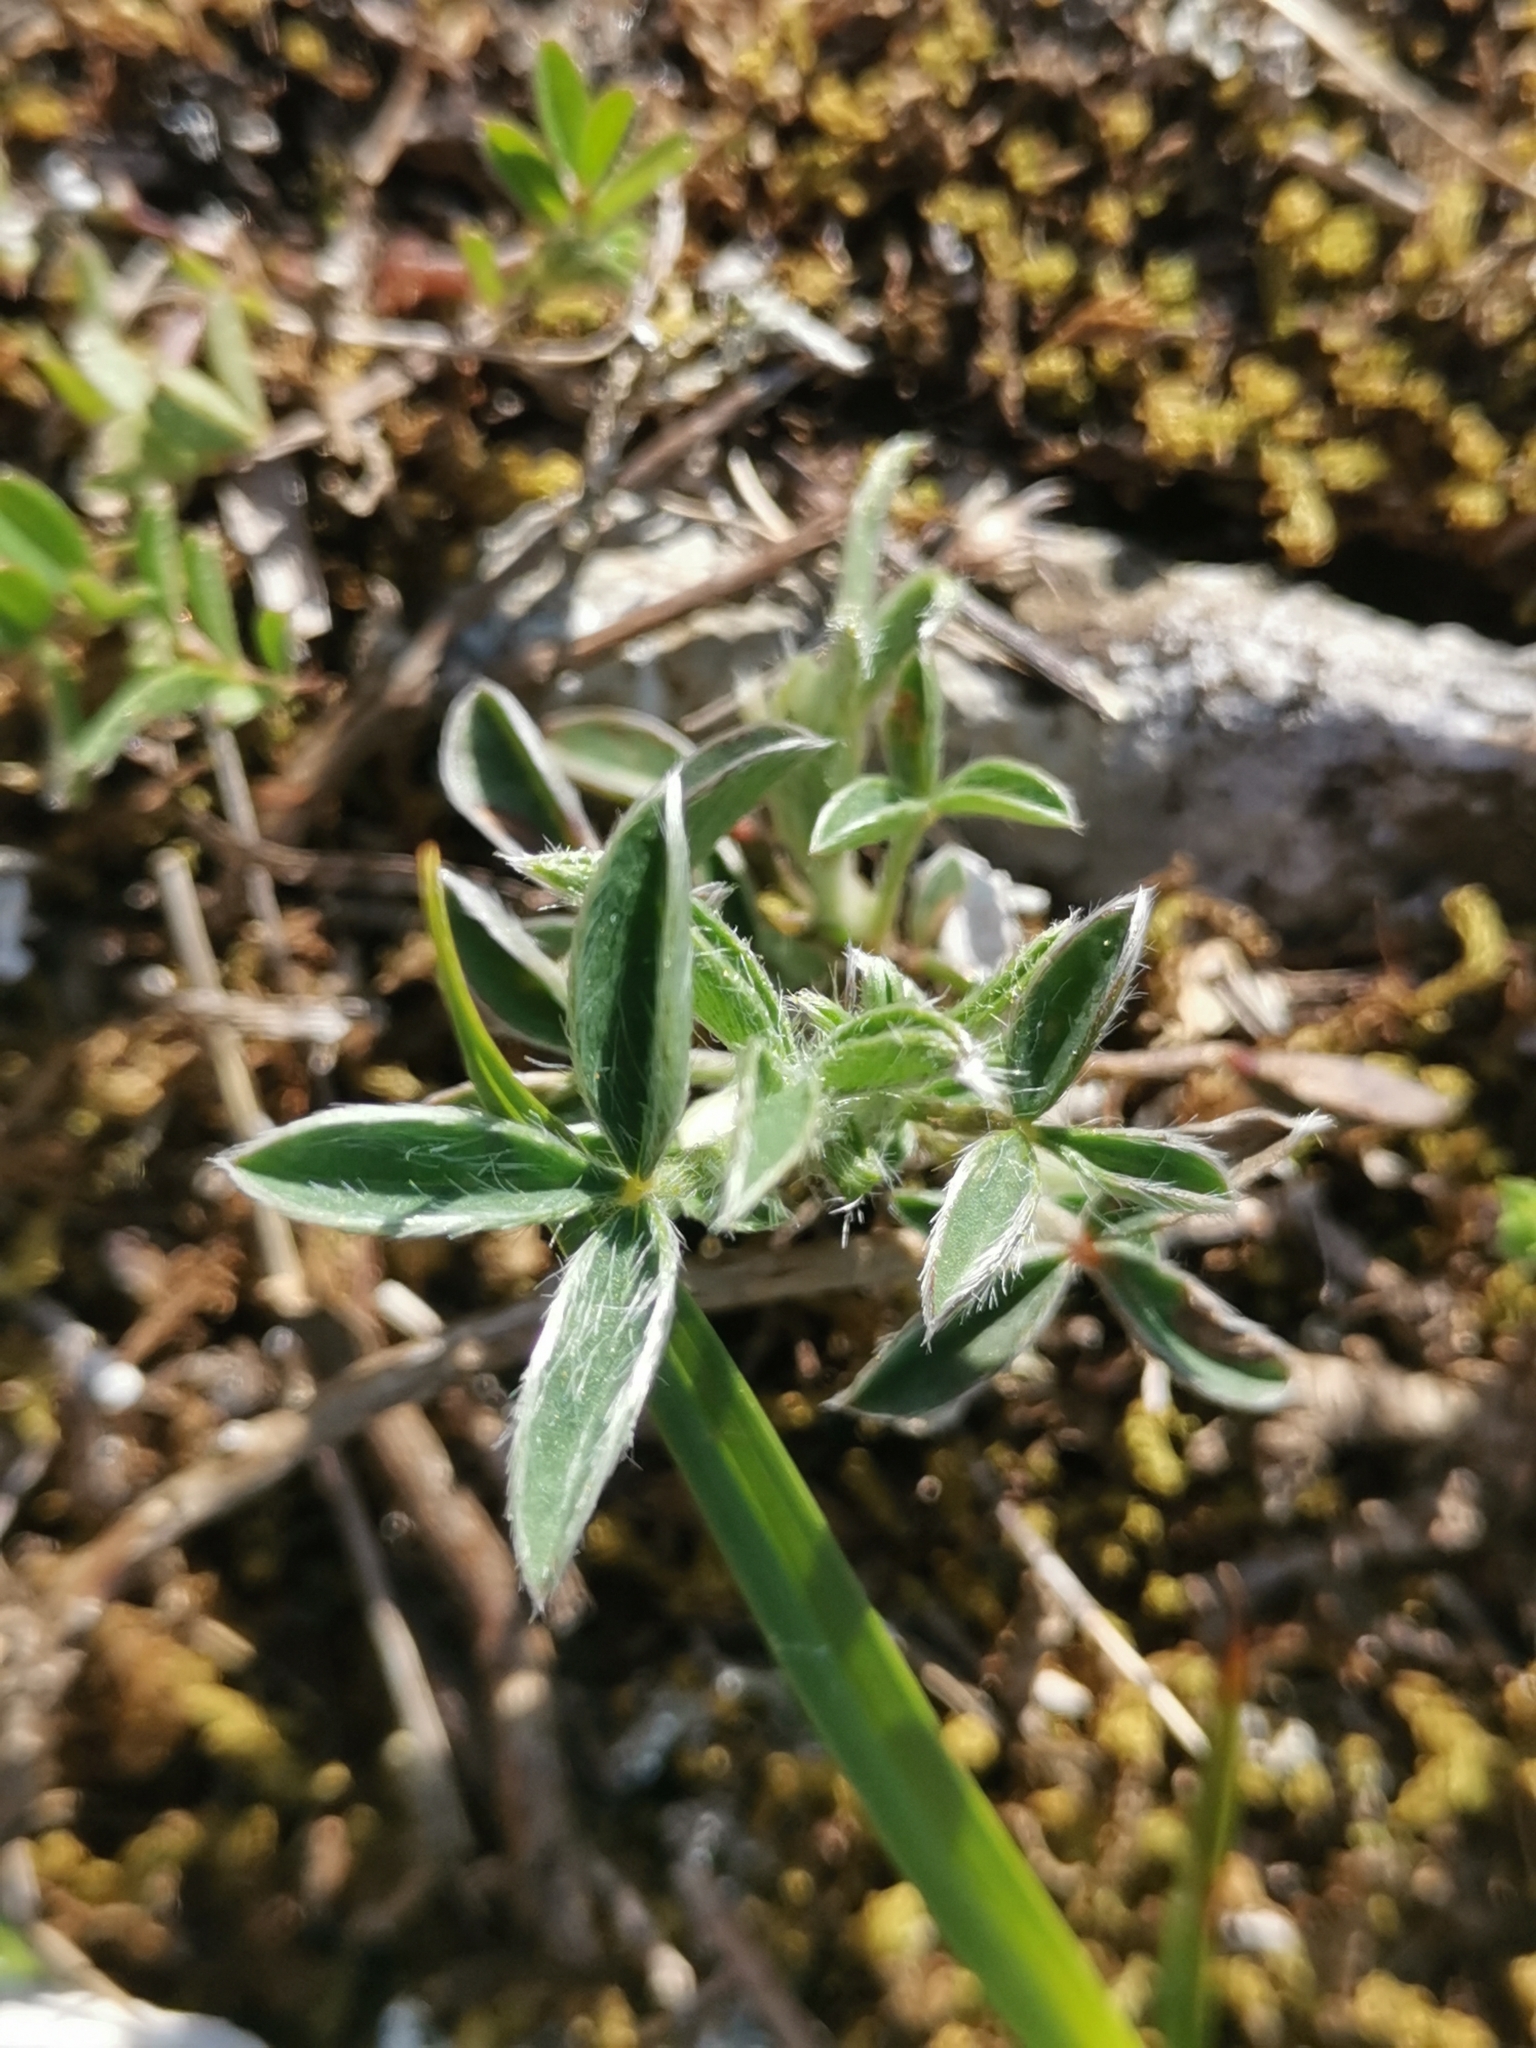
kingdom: Plantae
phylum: Tracheophyta
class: Magnoliopsida
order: Fabales
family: Fabaceae
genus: Argyrolobium
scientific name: Argyrolobium zanonii
